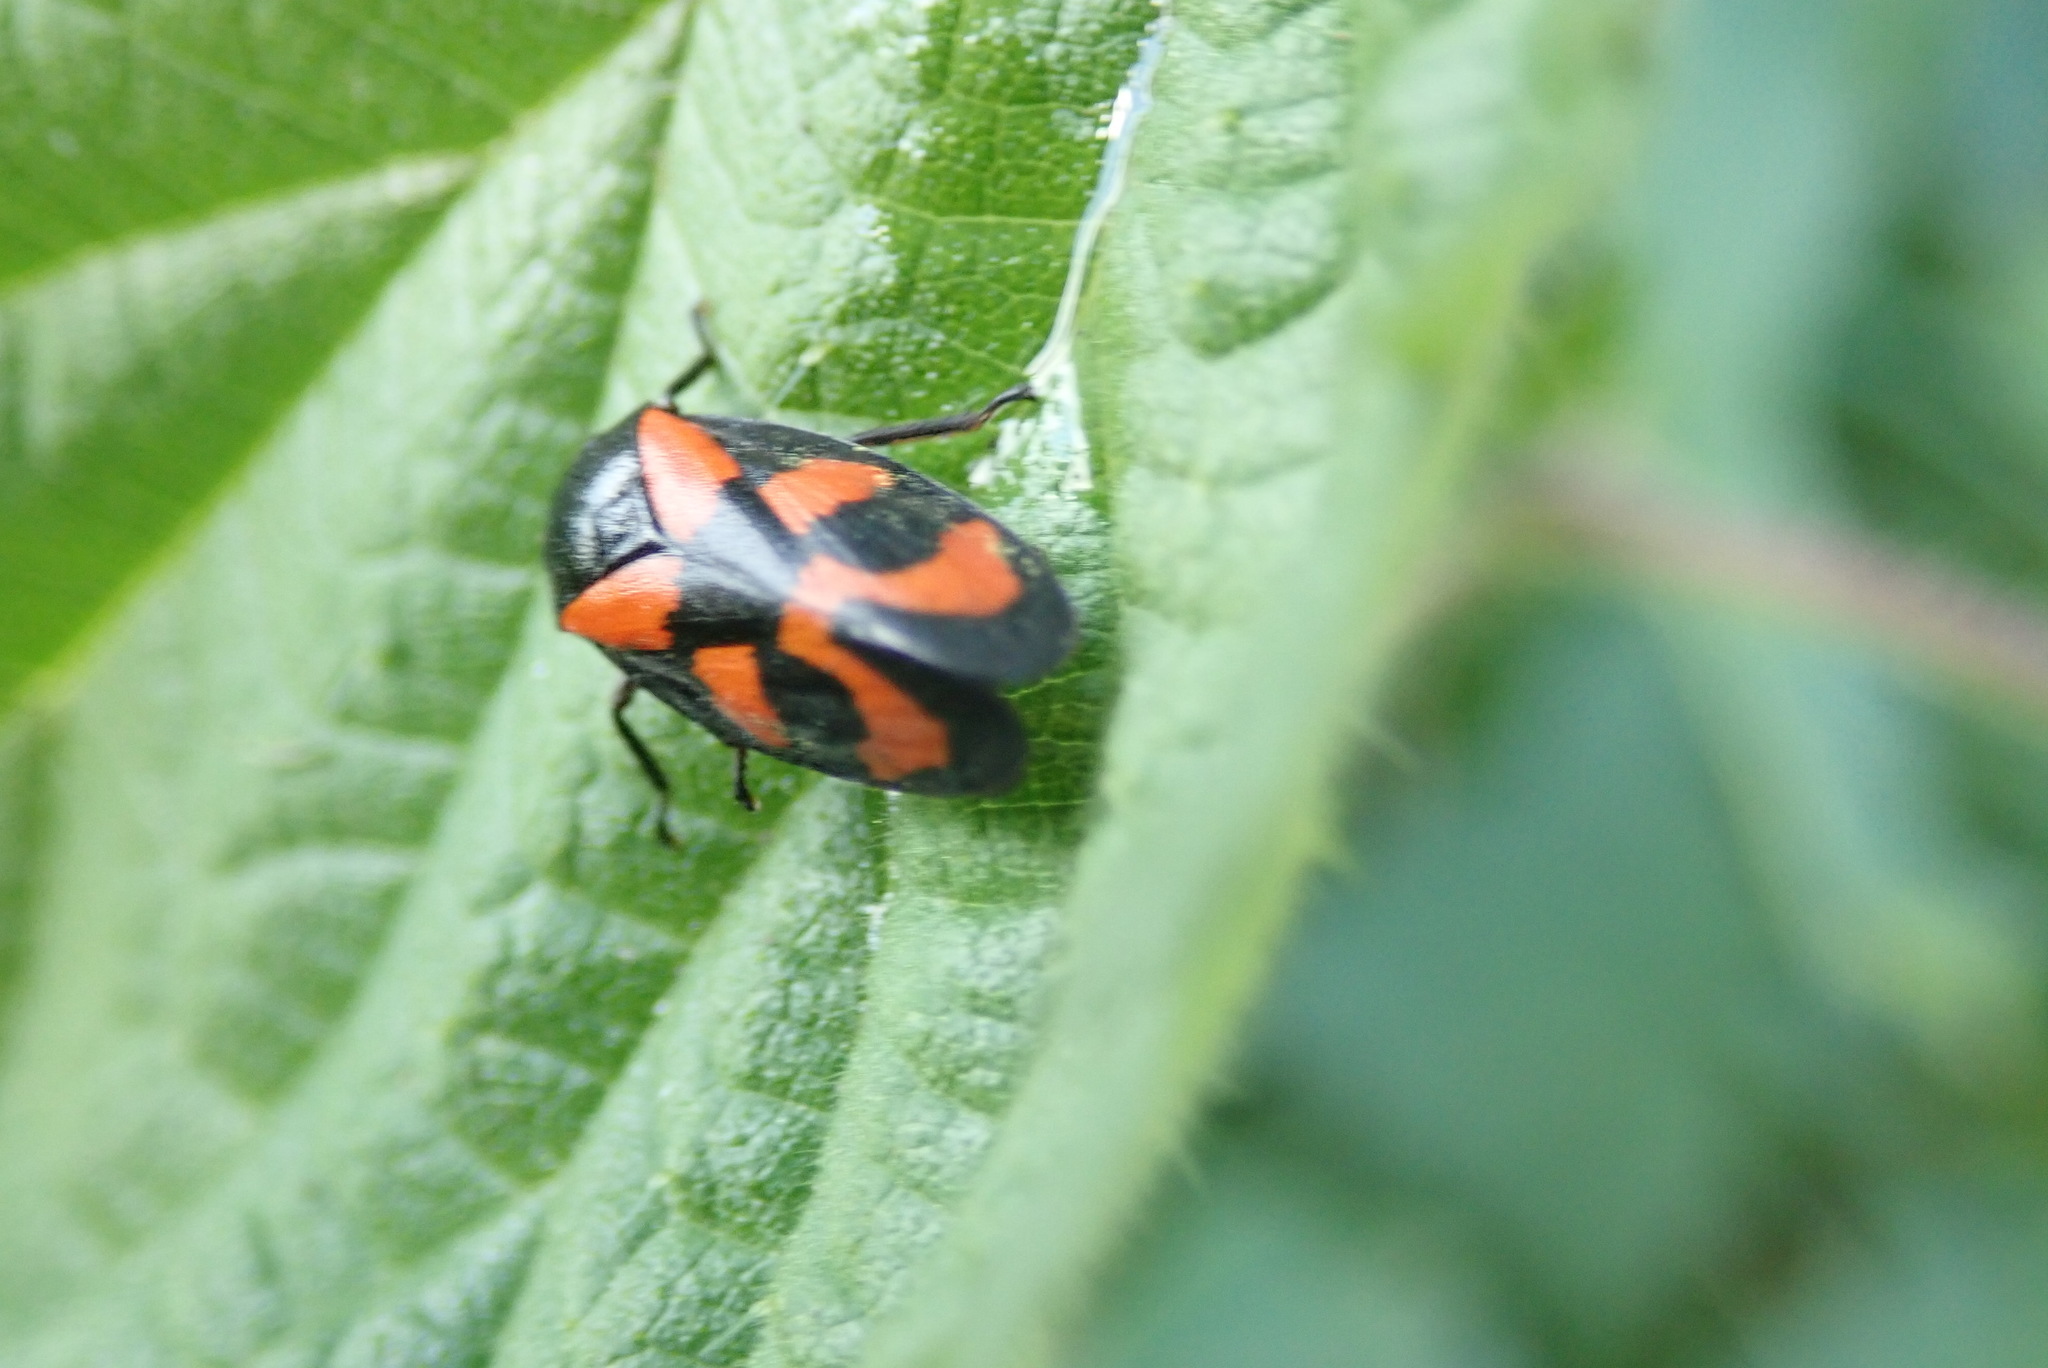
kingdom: Animalia
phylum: Arthropoda
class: Insecta
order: Hemiptera
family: Cercopidae
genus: Cercopis
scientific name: Cercopis vulnerata
